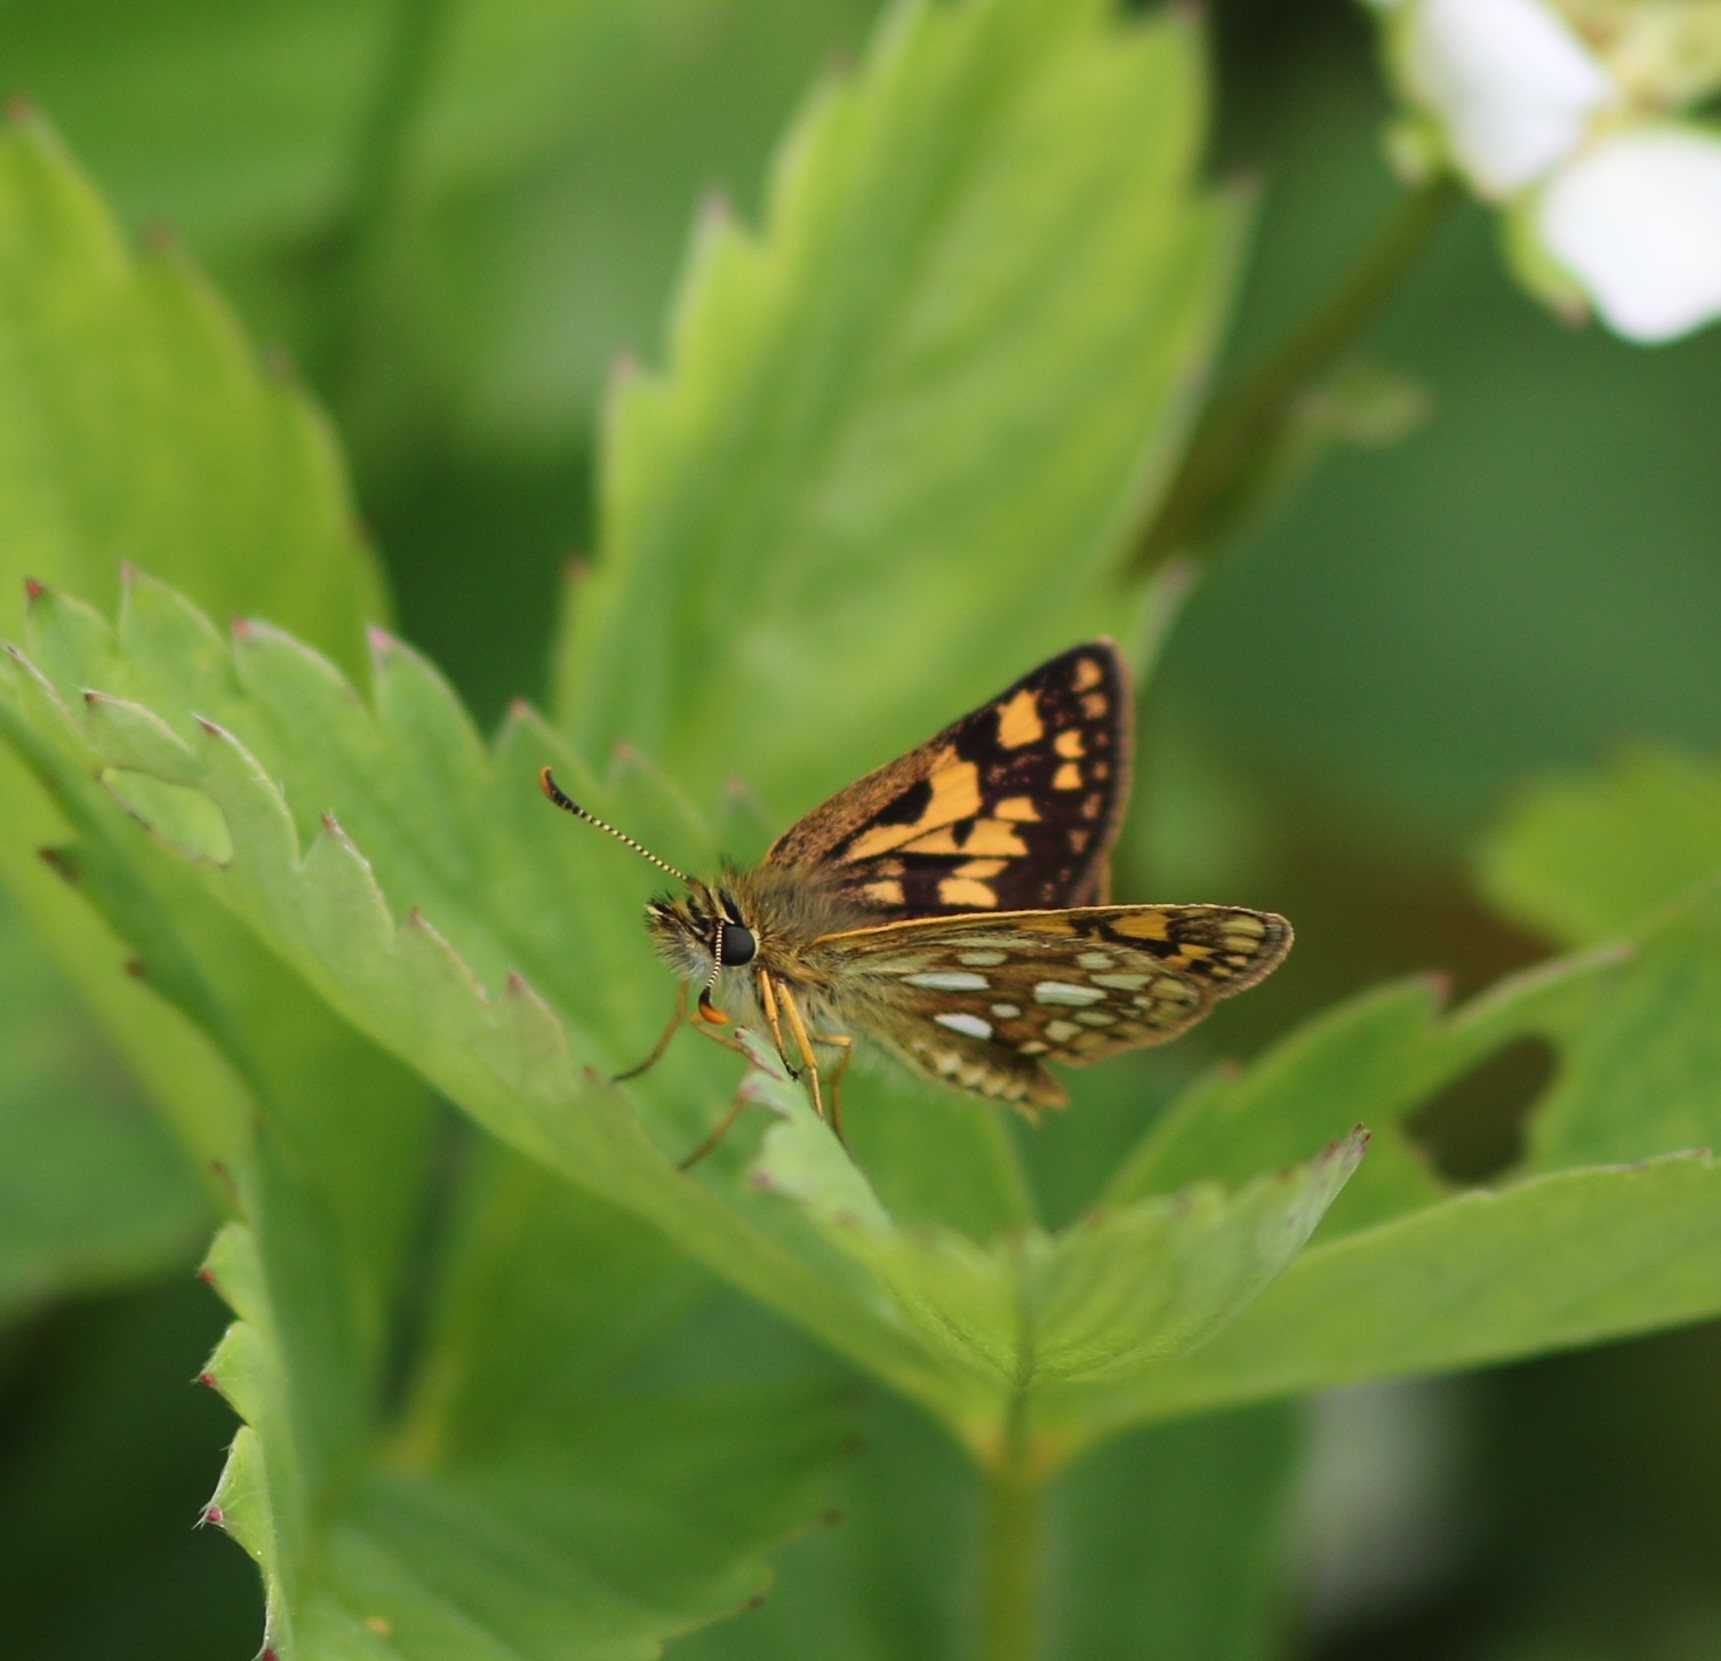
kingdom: Animalia
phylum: Arthropoda
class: Insecta
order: Lepidoptera
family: Hesperiidae
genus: Carterocephalus
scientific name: Carterocephalus mandan
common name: Arctic skipperling
